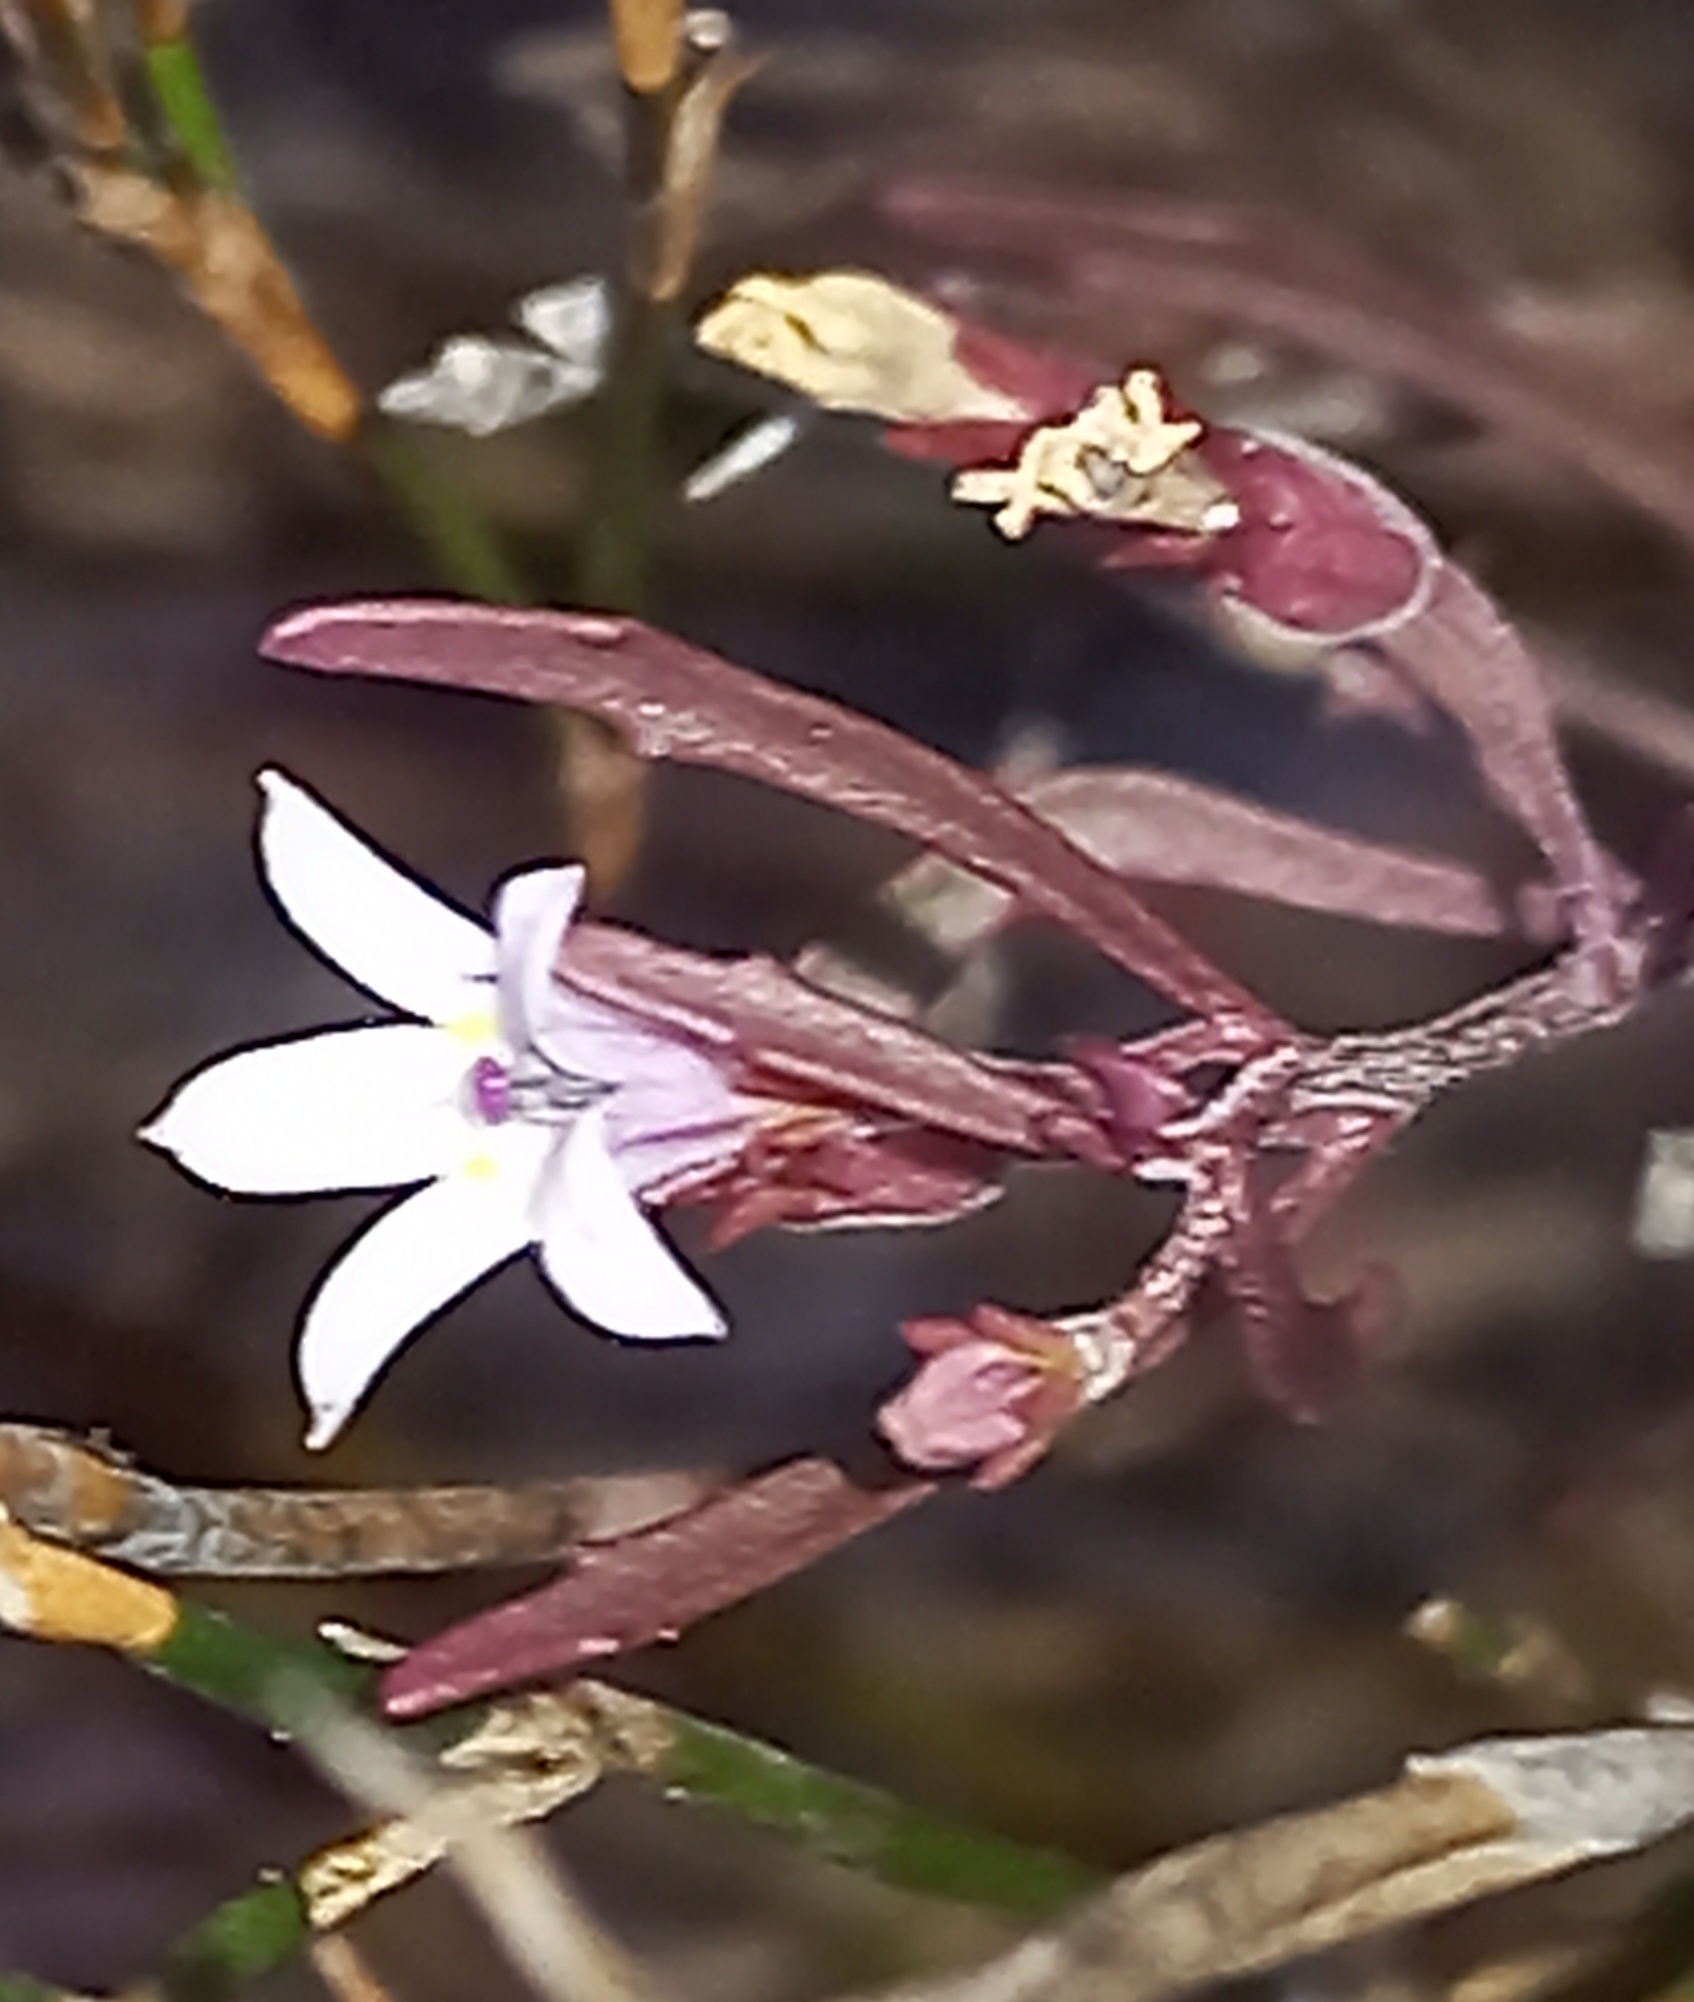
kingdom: Plantae
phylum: Tracheophyta
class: Magnoliopsida
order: Asterales
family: Campanulaceae
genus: Wimmerella
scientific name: Wimmerella secunda
